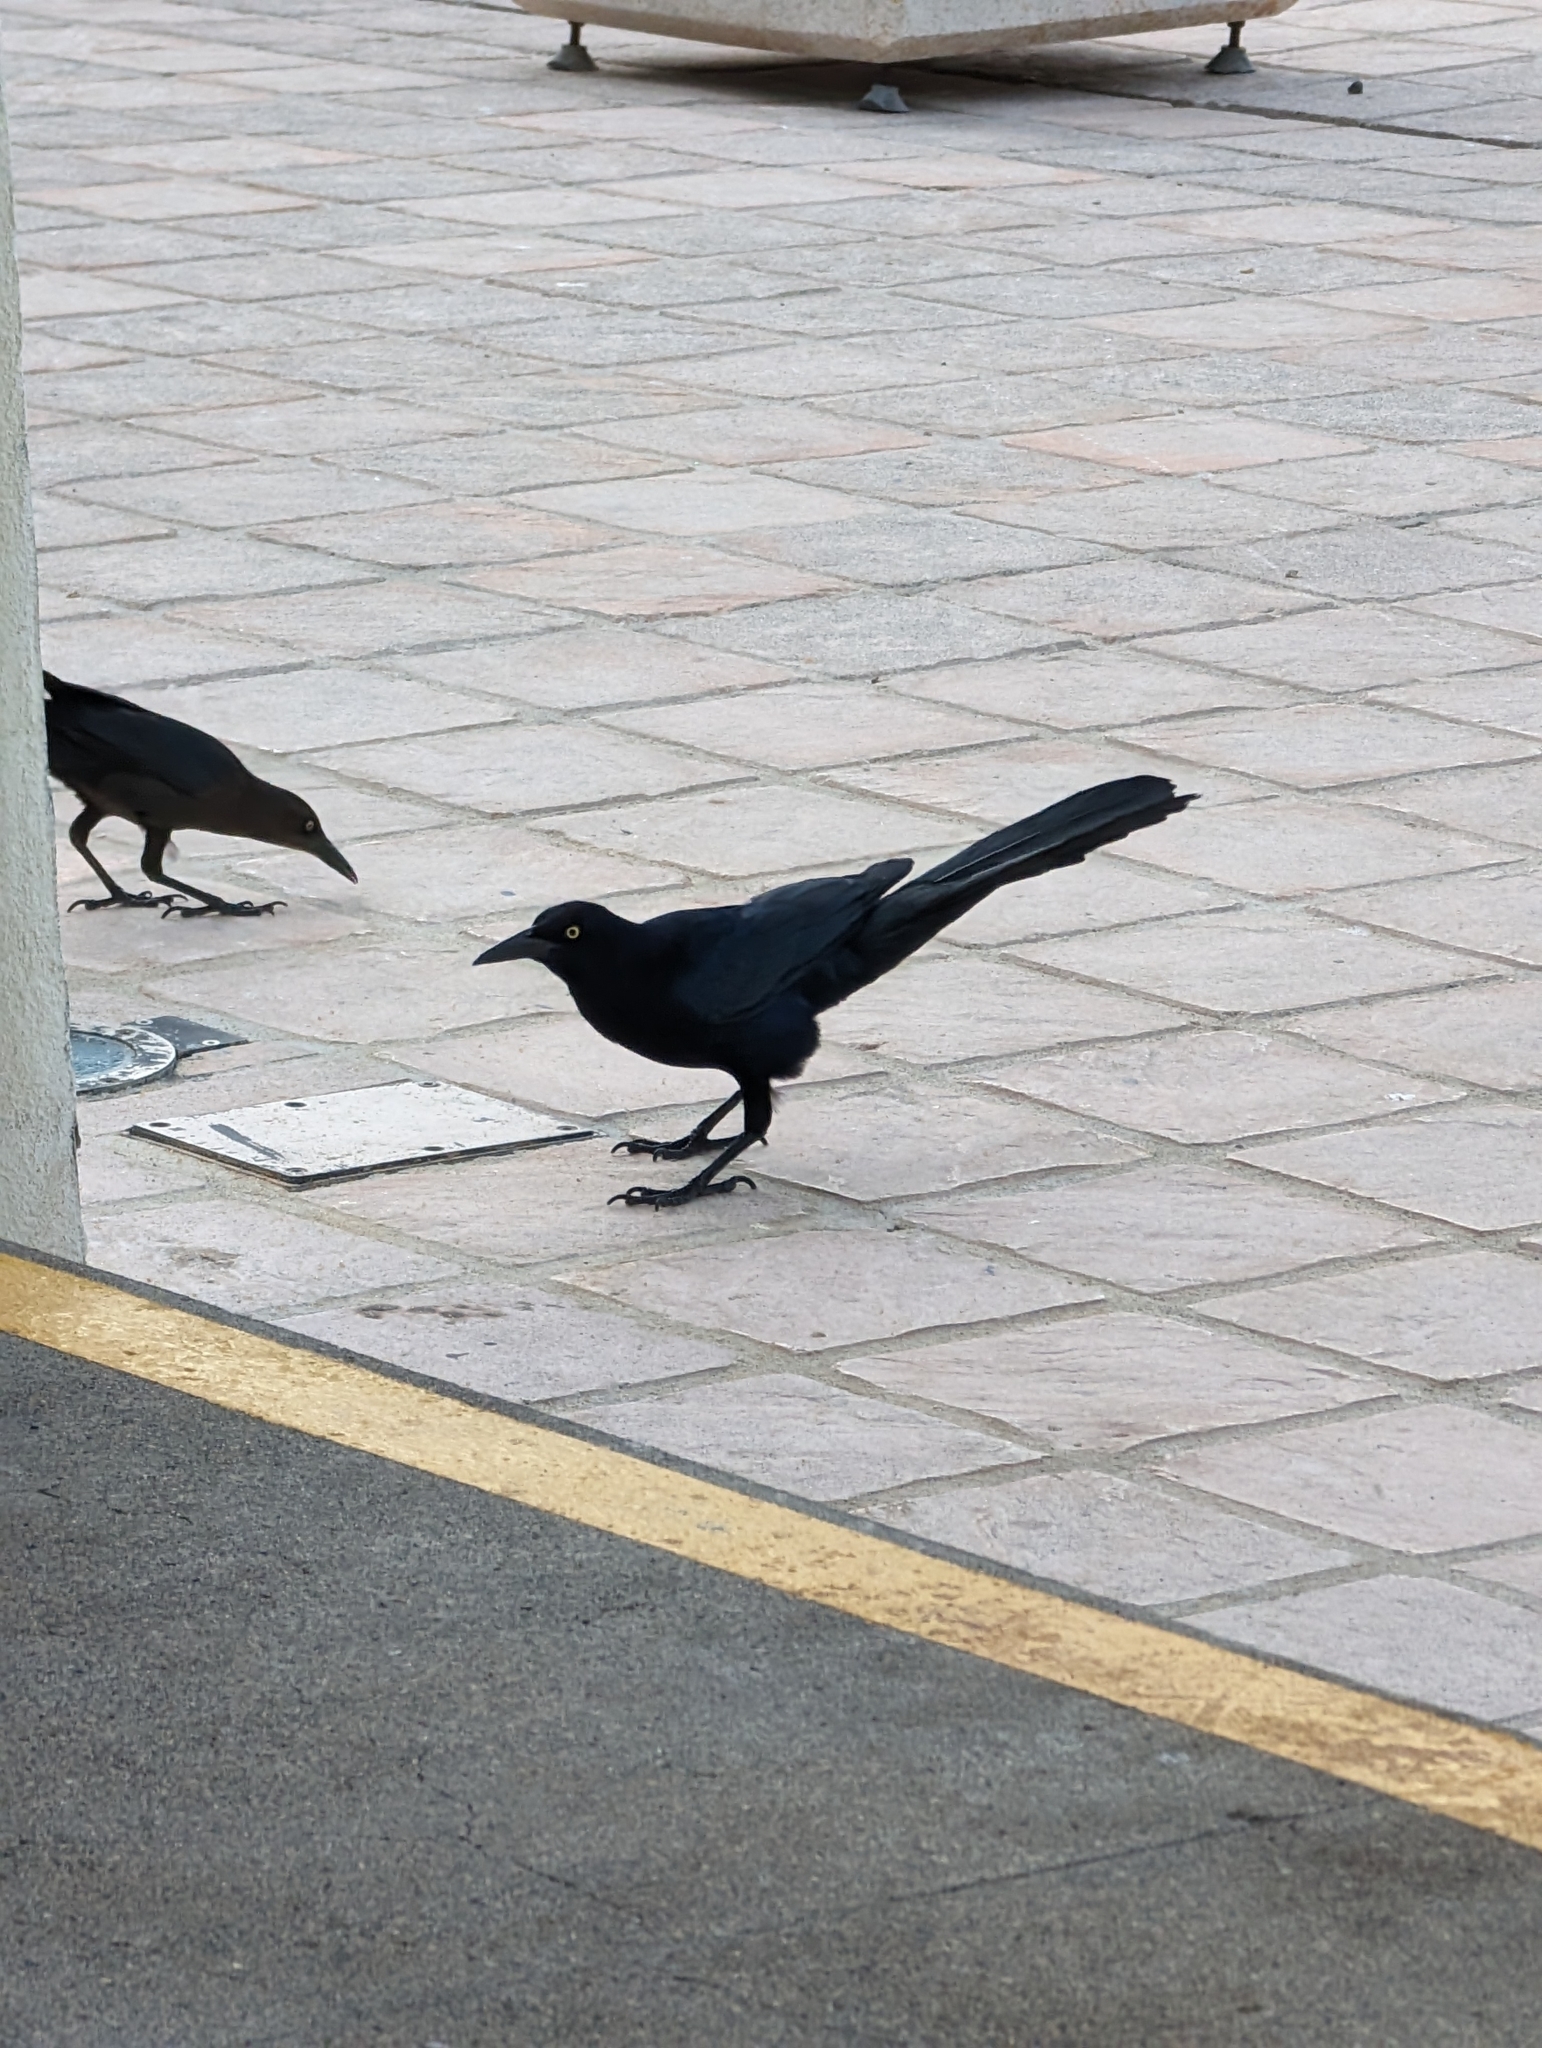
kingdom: Animalia
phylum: Chordata
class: Aves
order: Passeriformes
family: Icteridae
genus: Quiscalus
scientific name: Quiscalus mexicanus
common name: Great-tailed grackle
